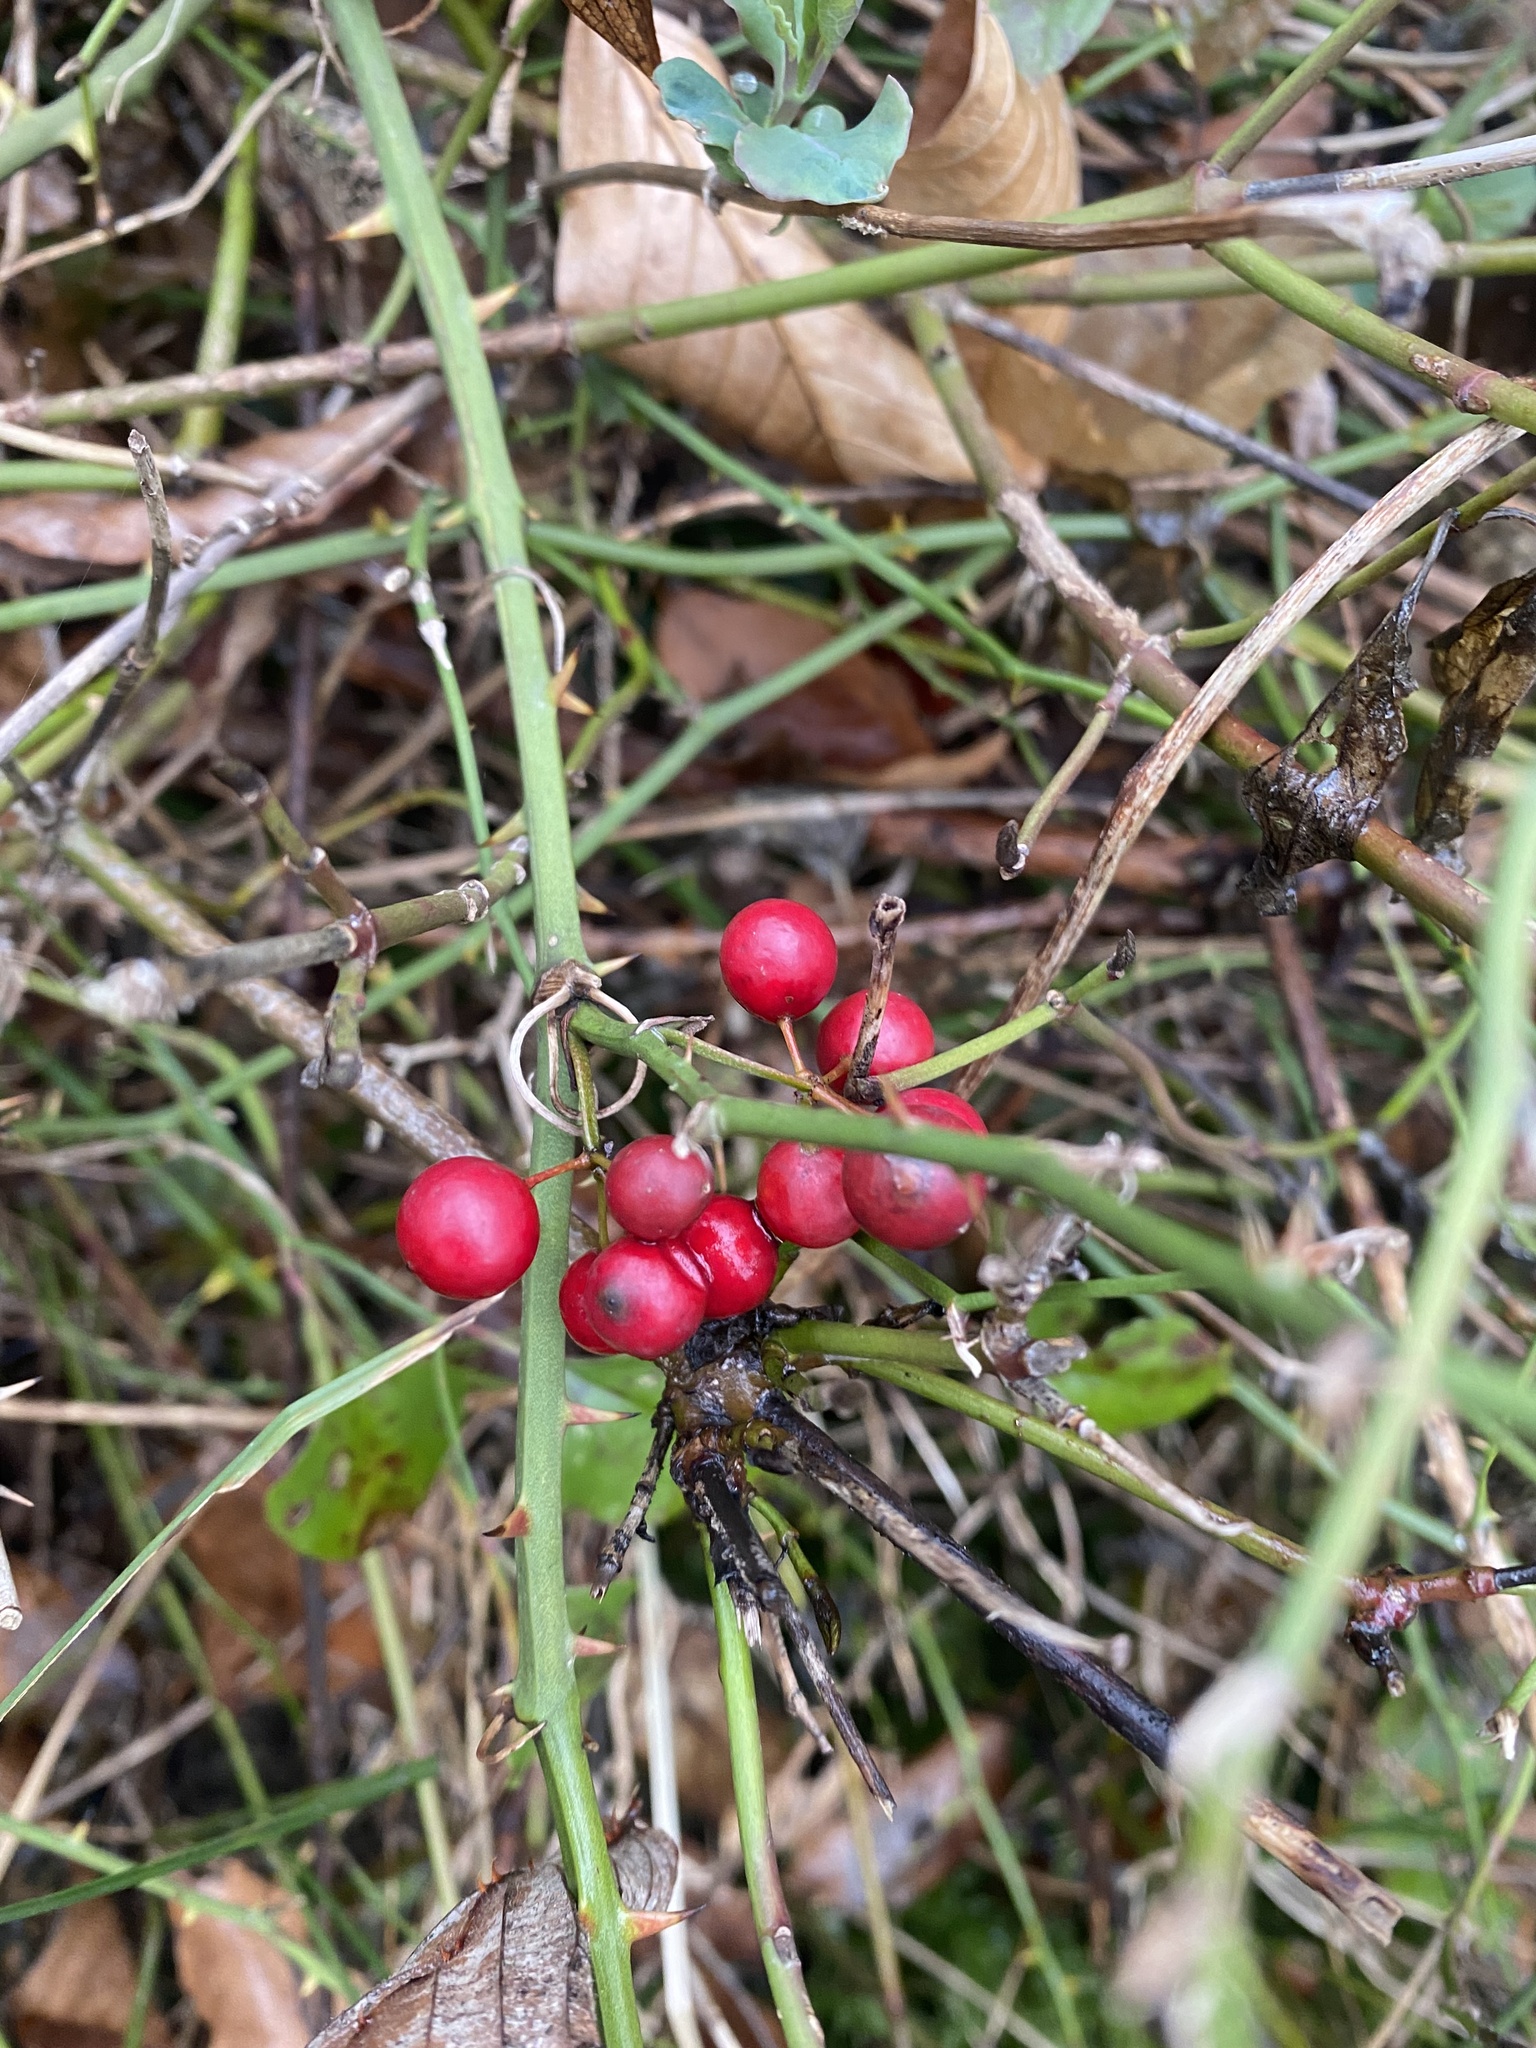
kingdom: Plantae
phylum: Tracheophyta
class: Liliopsida
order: Liliales
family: Smilacaceae
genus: Smilax
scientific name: Smilax excelsa
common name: Larger smilax
